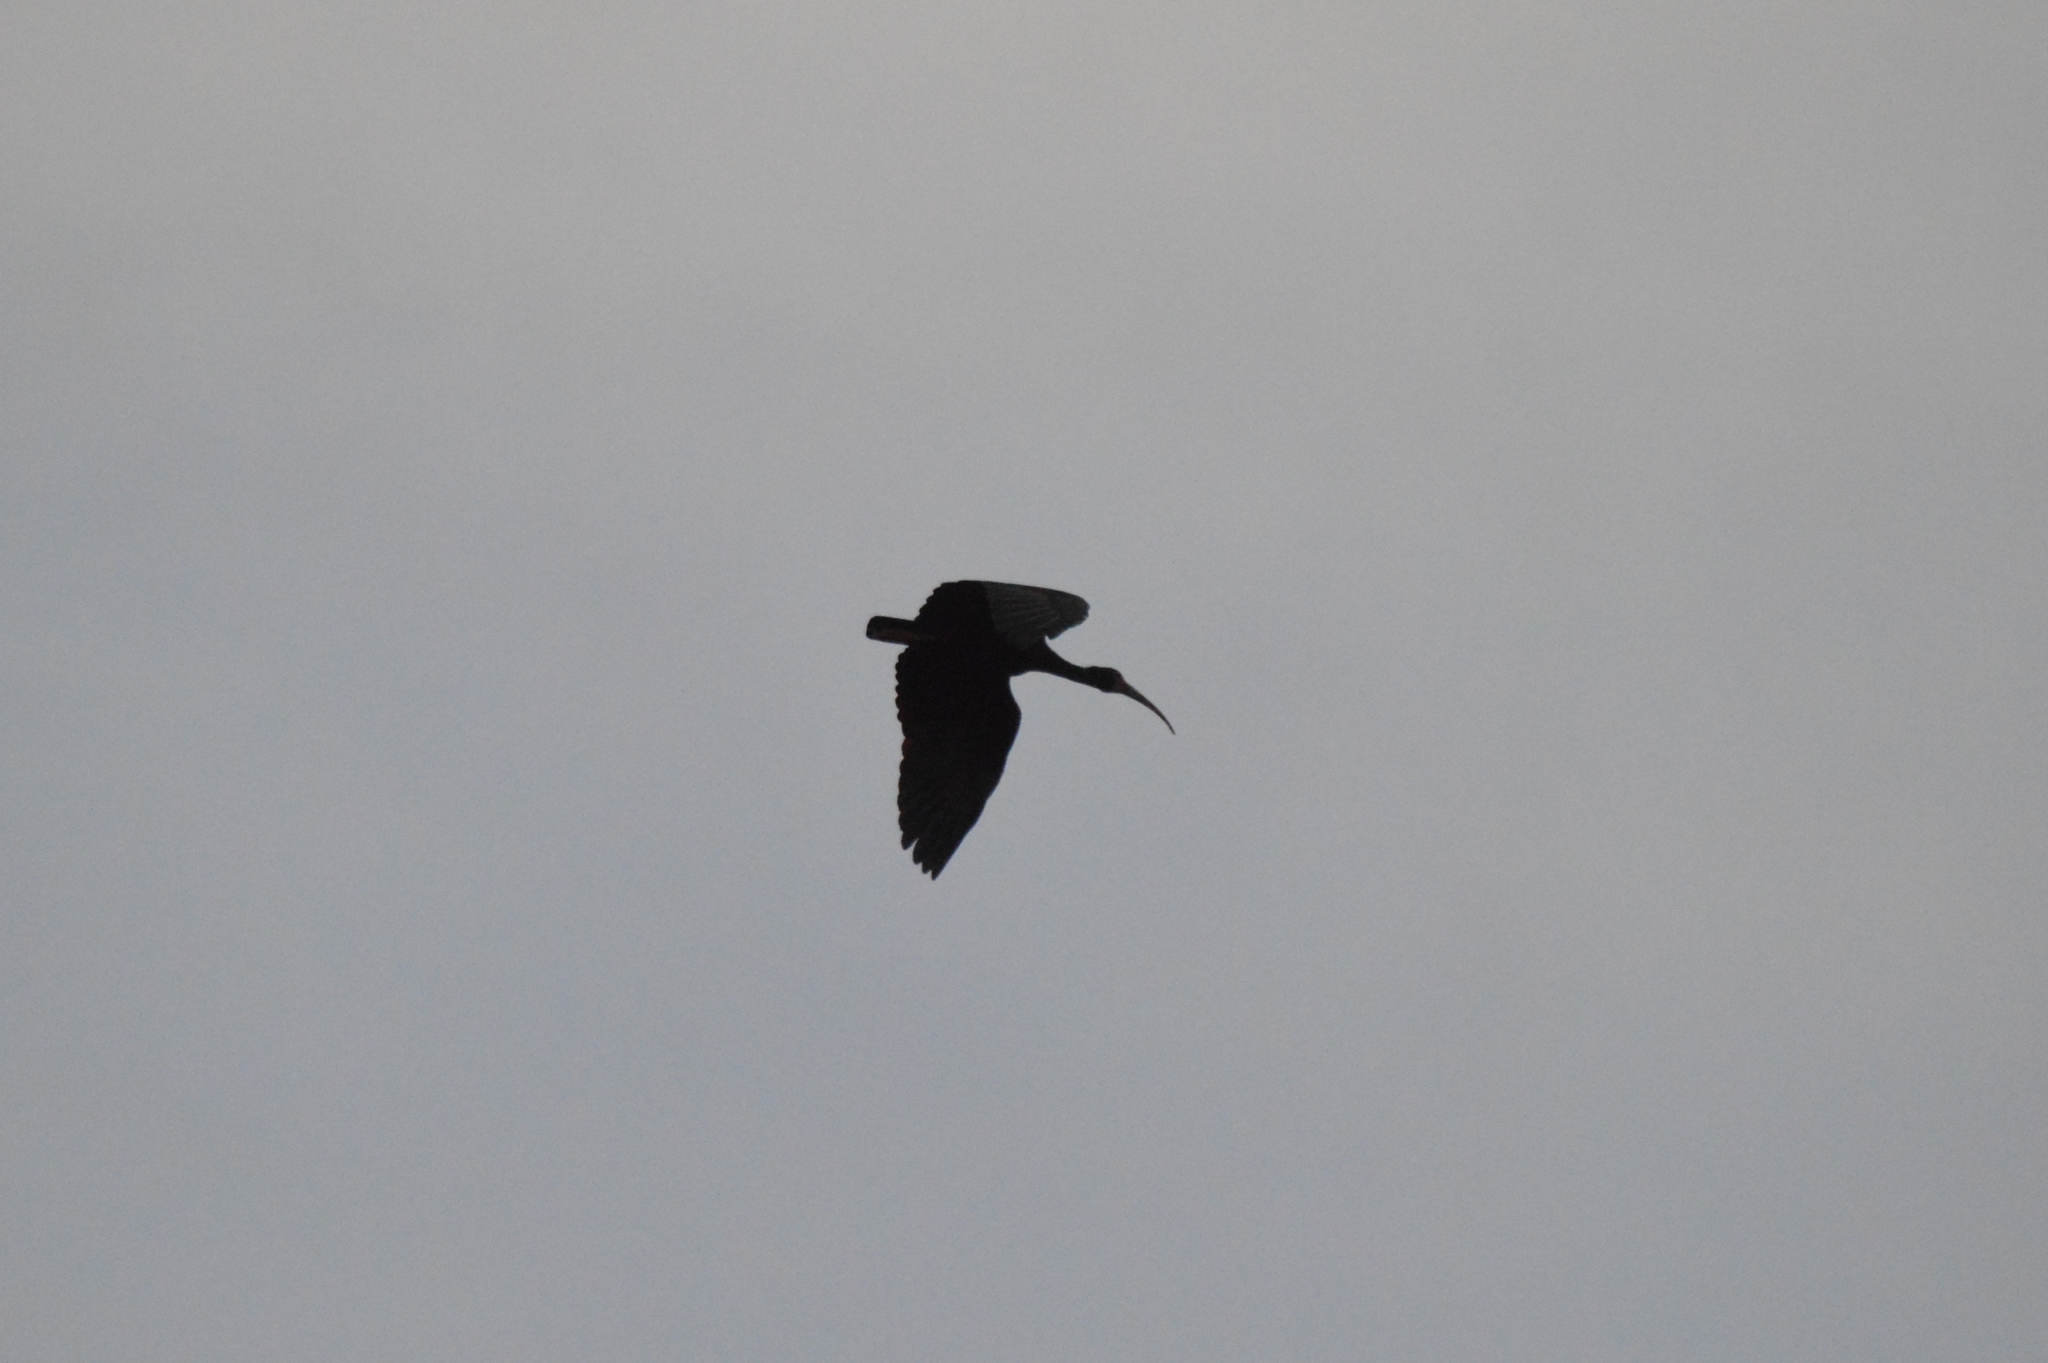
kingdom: Animalia
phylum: Chordata
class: Aves
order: Pelecaniformes
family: Threskiornithidae
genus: Theristicus
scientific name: Theristicus caudatus
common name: Buff-necked ibis
